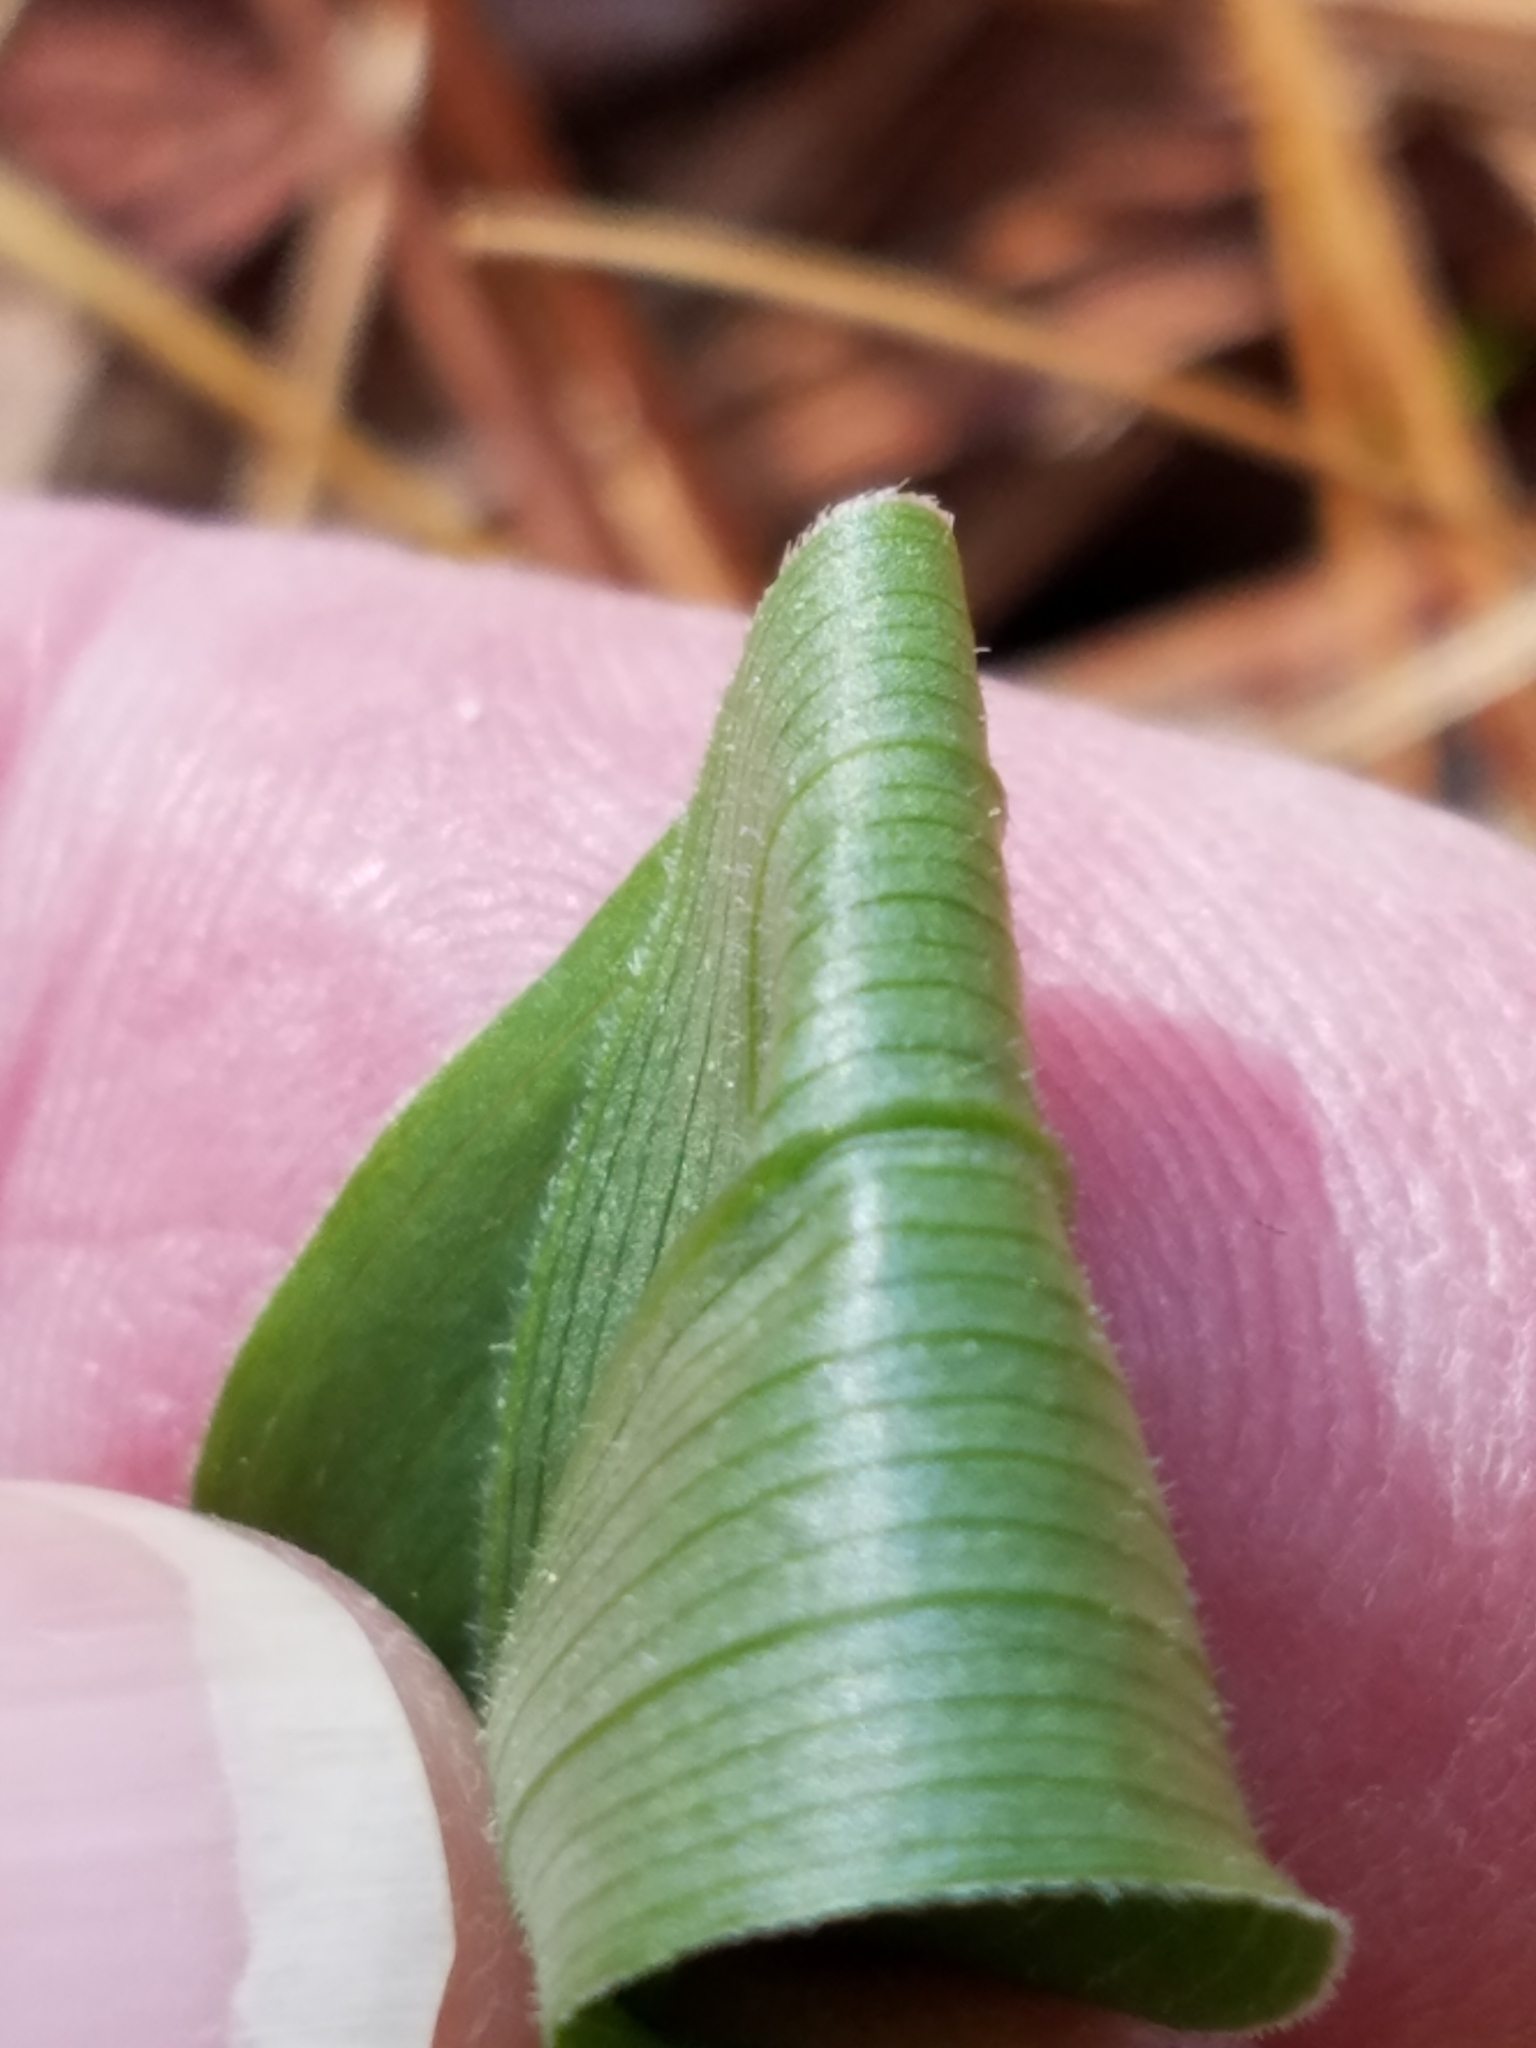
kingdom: Plantae
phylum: Tracheophyta
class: Liliopsida
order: Asparagales
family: Asparagaceae
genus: Maianthemum
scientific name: Maianthemum racemosum
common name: False spikenard
